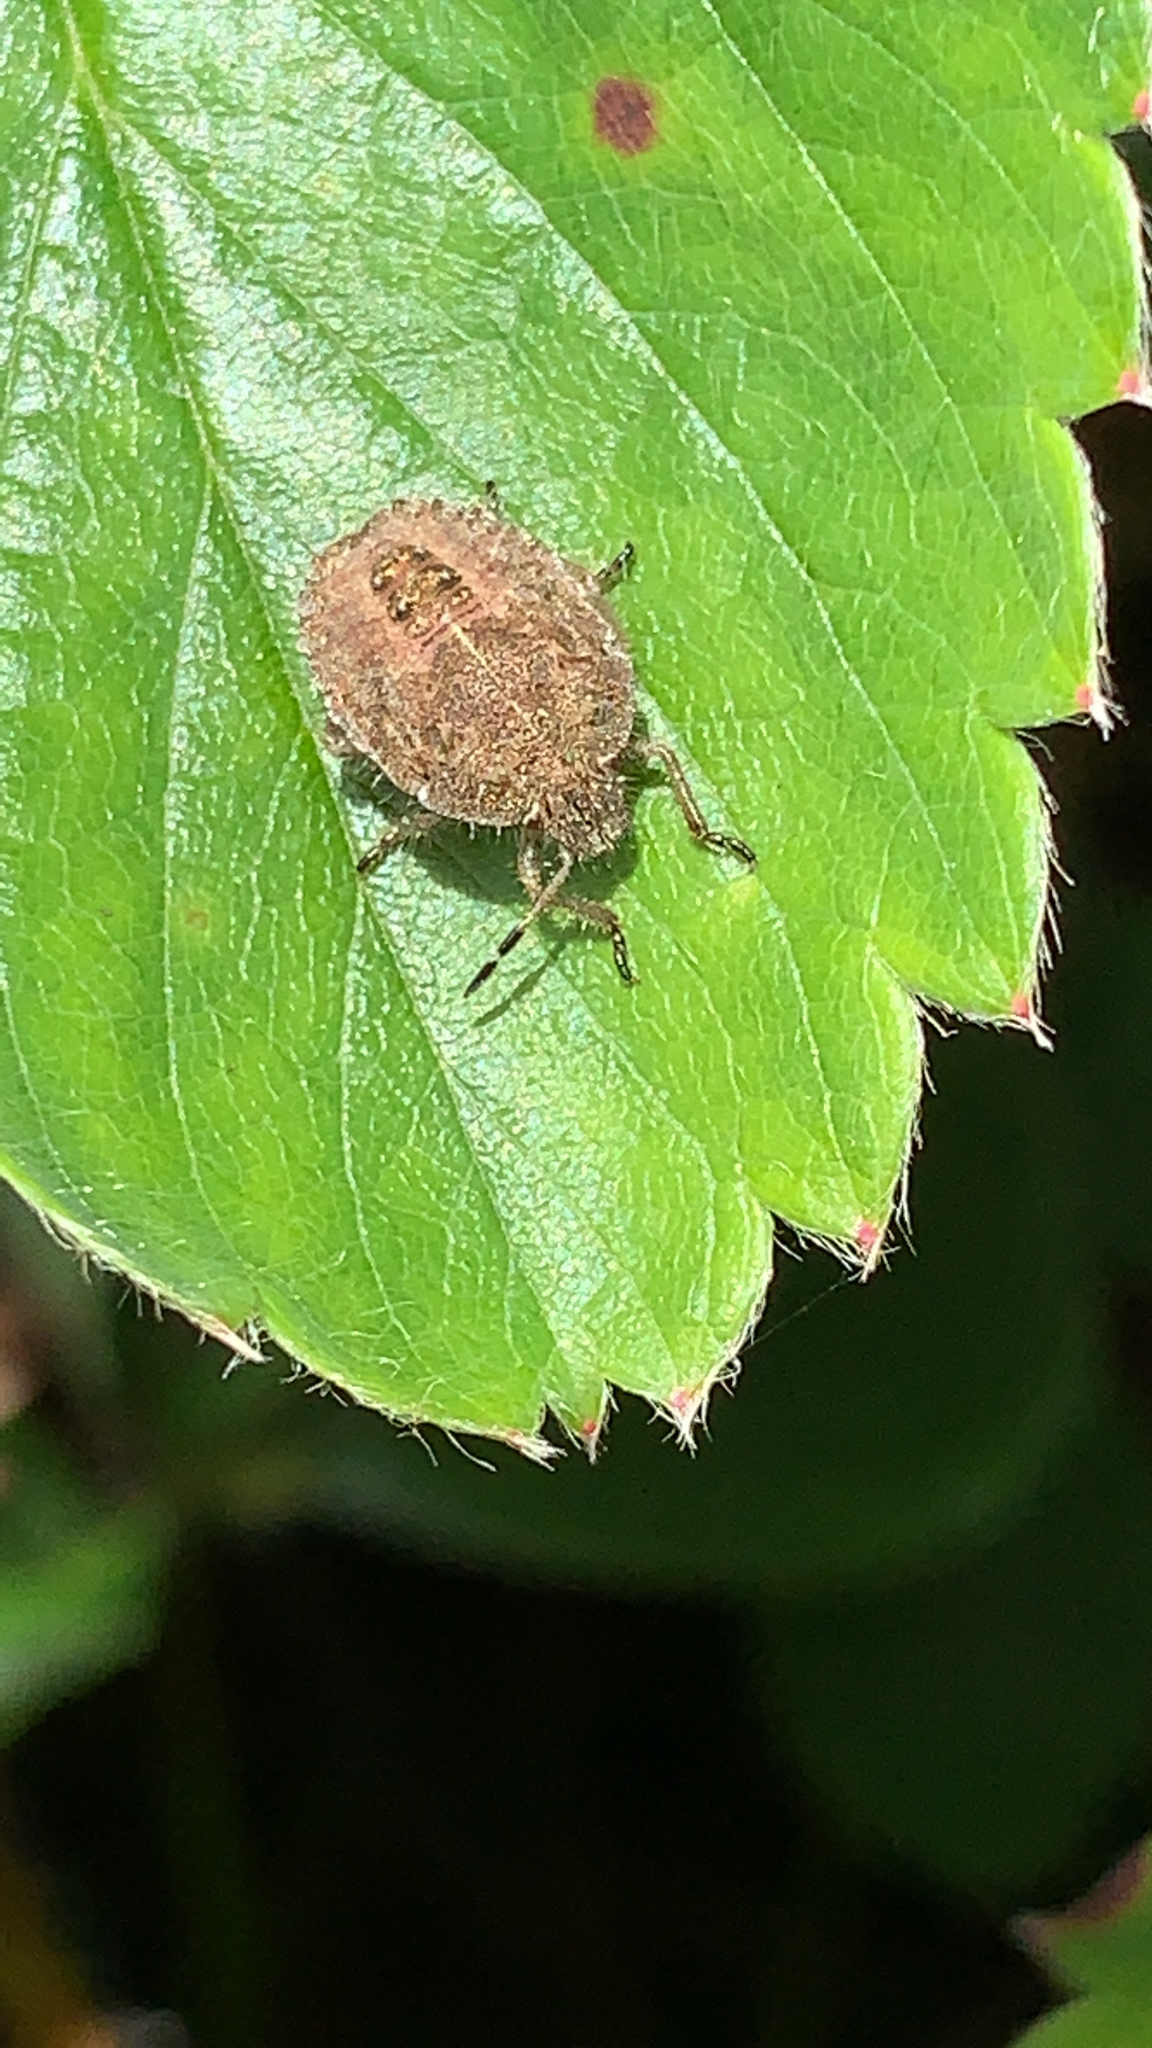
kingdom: Animalia
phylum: Arthropoda
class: Insecta
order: Hemiptera
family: Pentatomidae
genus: Dolycoris
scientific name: Dolycoris baccarum
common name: Sloe bug
